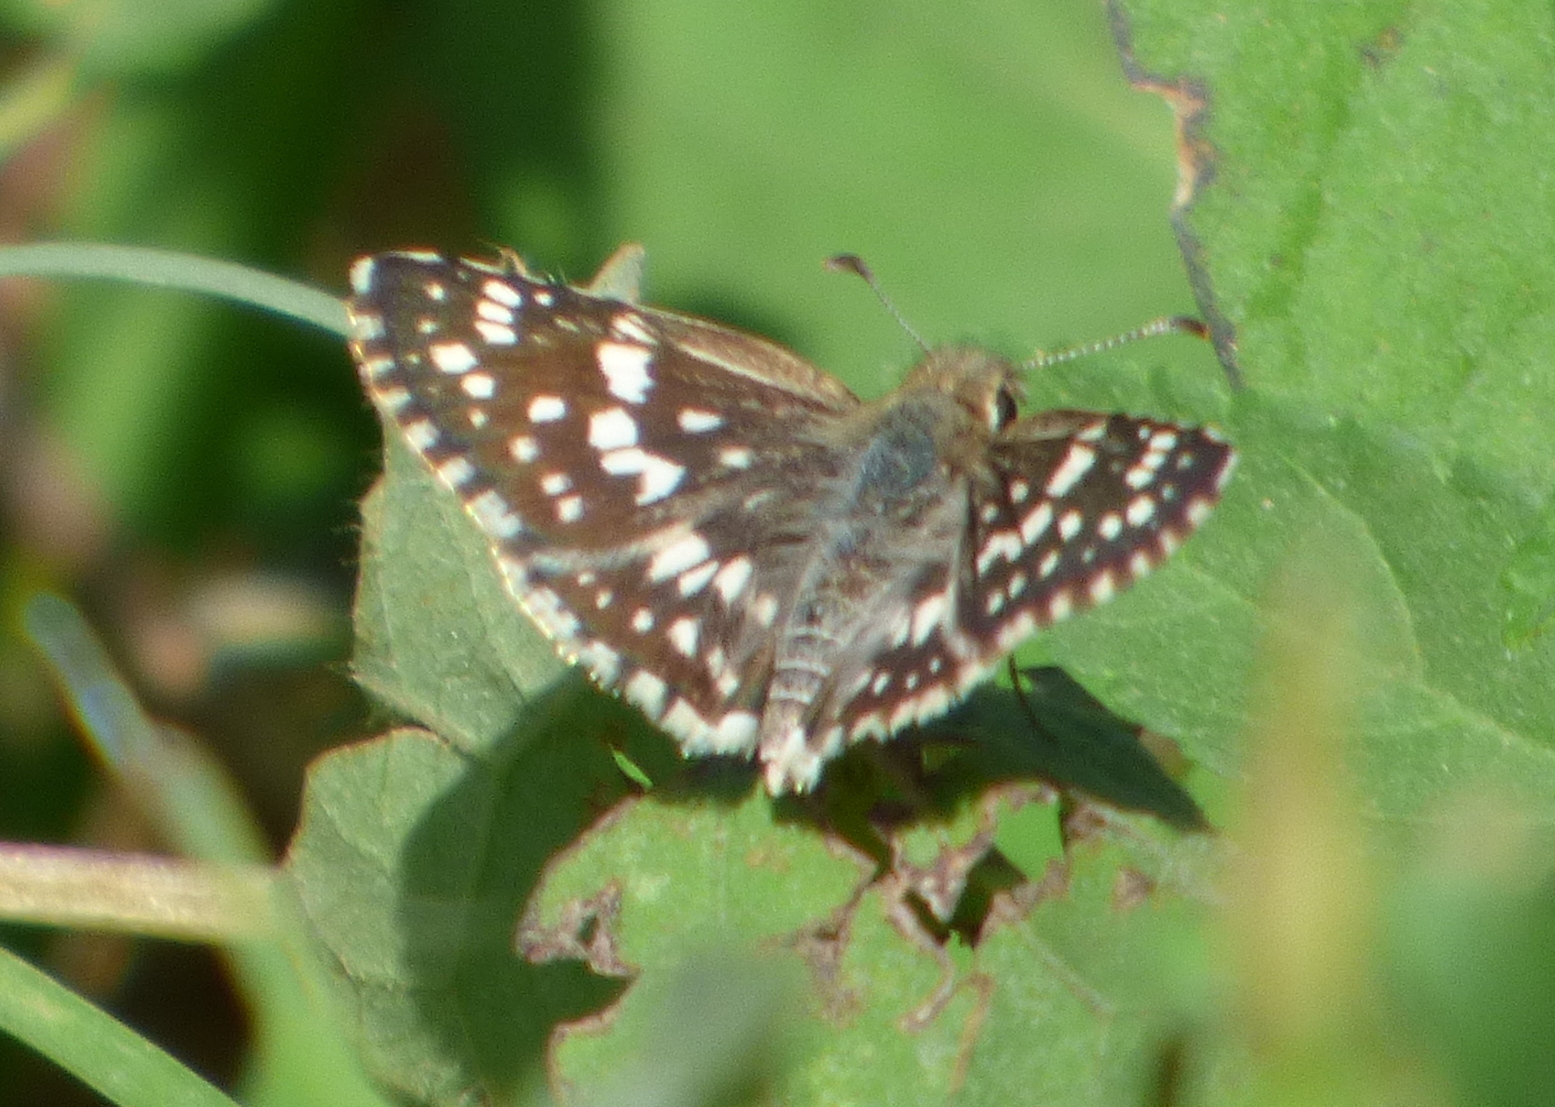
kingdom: Animalia
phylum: Arthropoda
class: Insecta
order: Lepidoptera
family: Hesperiidae
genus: Burnsius
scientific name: Burnsius orcynoides
